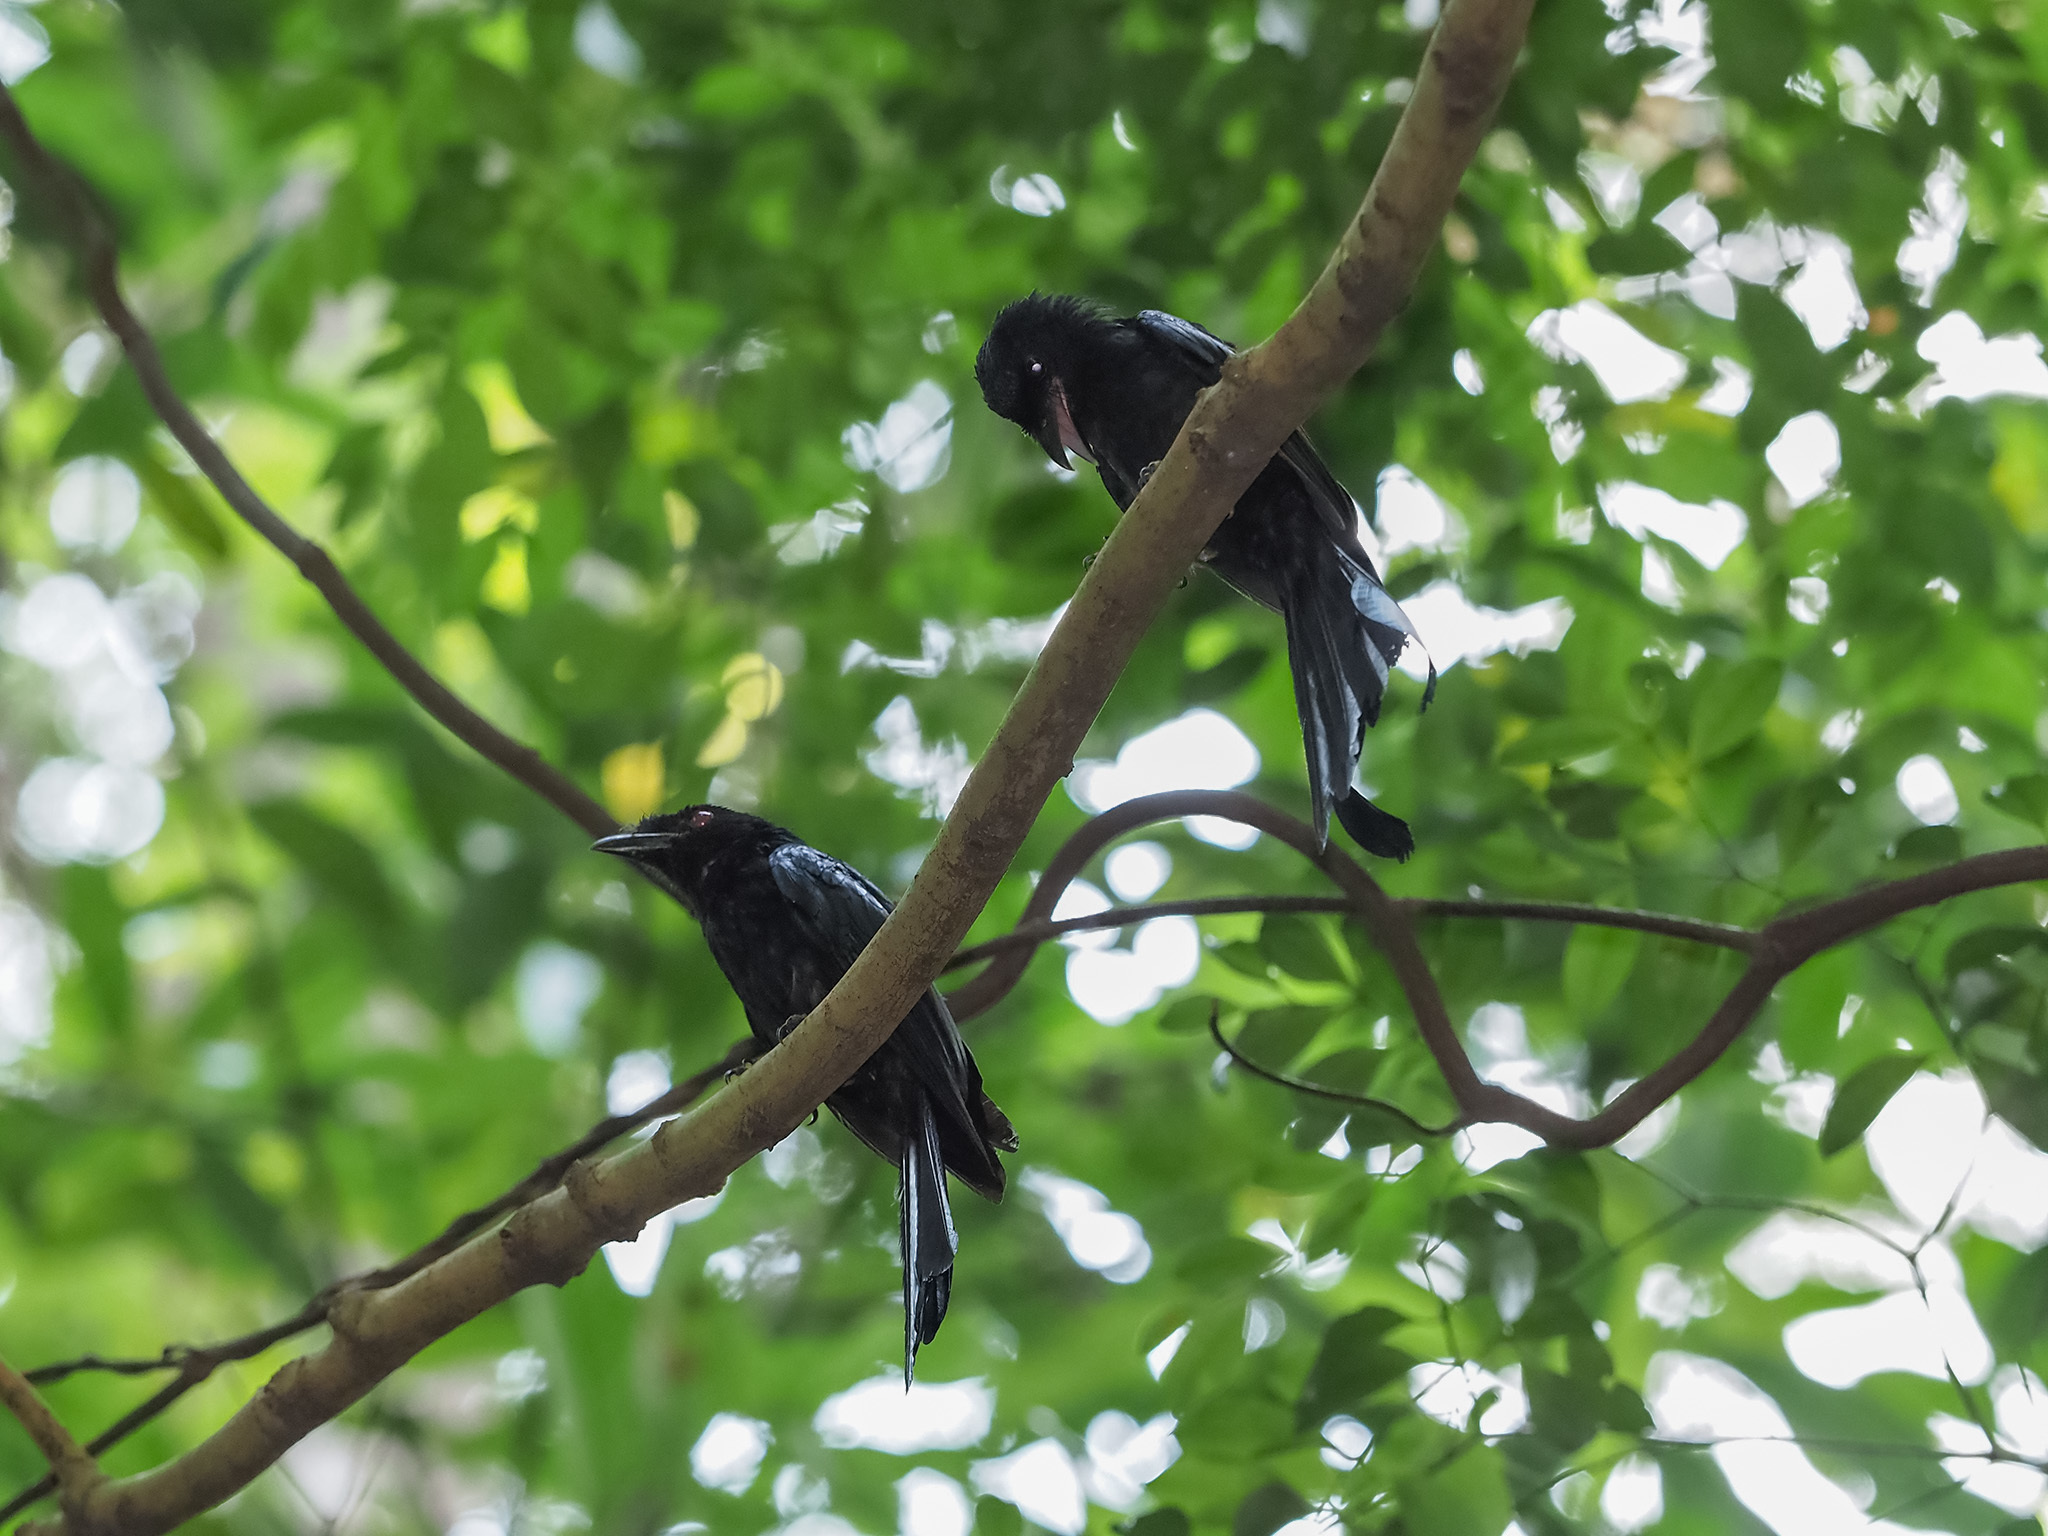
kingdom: Animalia
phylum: Chordata
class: Aves
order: Passeriformes
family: Dicruridae
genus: Dicrurus
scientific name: Dicrurus paradiseus
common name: Greater racket-tailed drongo
